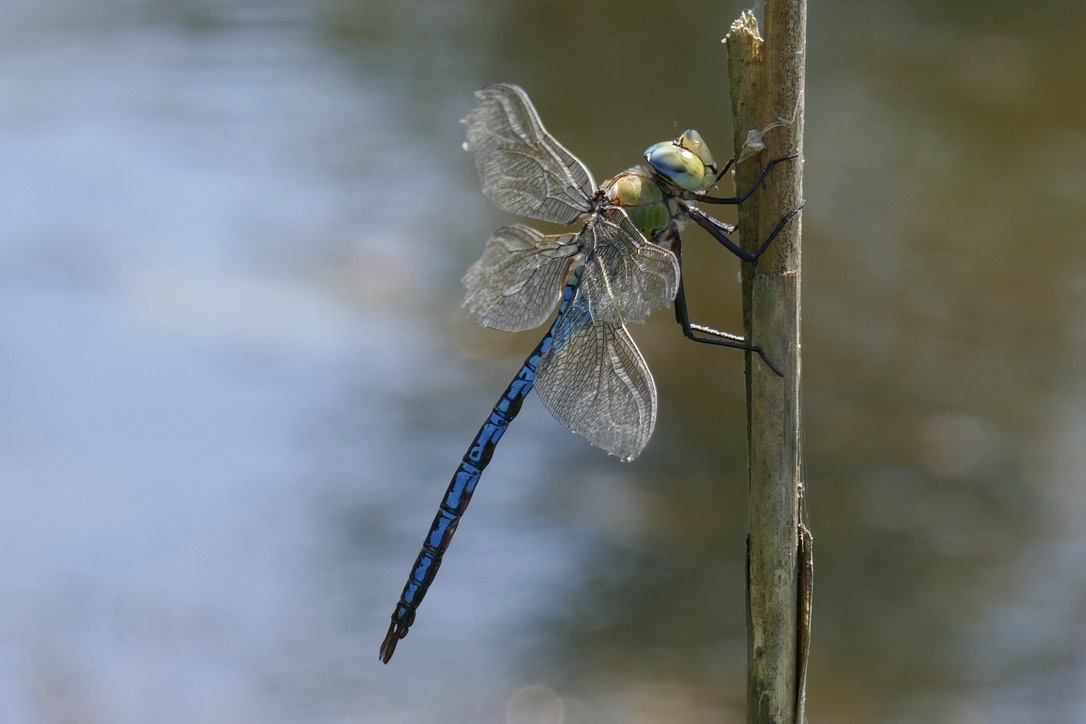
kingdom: Animalia
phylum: Arthropoda
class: Insecta
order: Odonata
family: Aeshnidae
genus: Anax
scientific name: Anax imperator
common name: Emperor dragonfly
